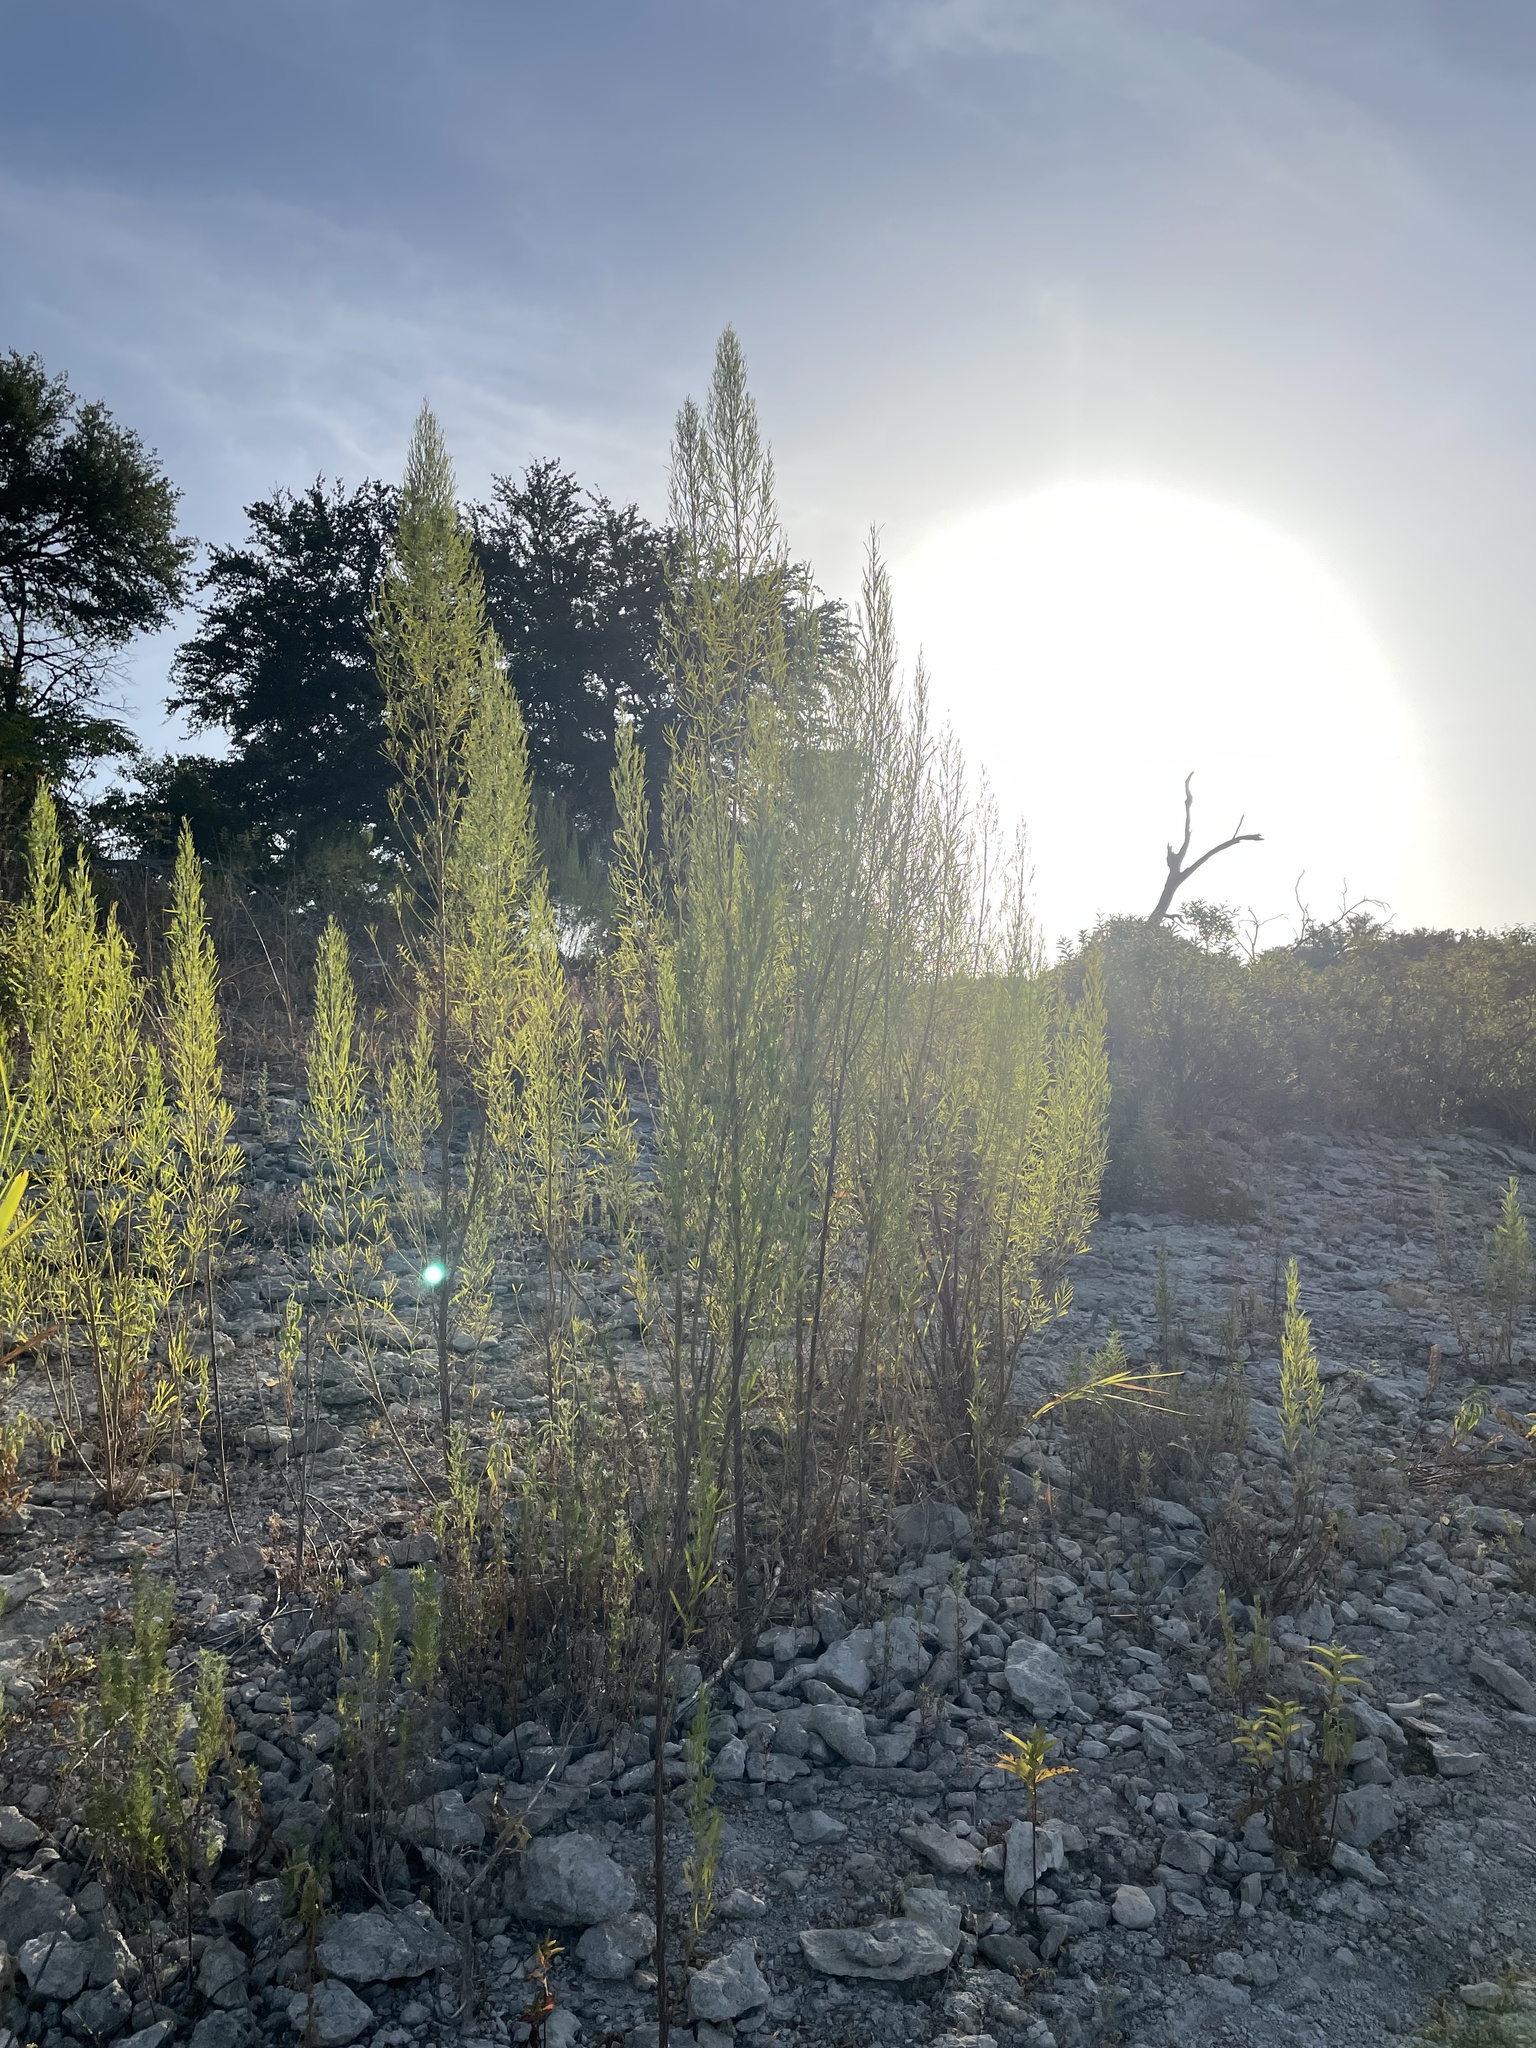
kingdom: Plantae
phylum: Tracheophyta
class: Magnoliopsida
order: Asterales
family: Asteraceae
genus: Baccharis
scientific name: Baccharis neglecta
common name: Roosevelt-weed
